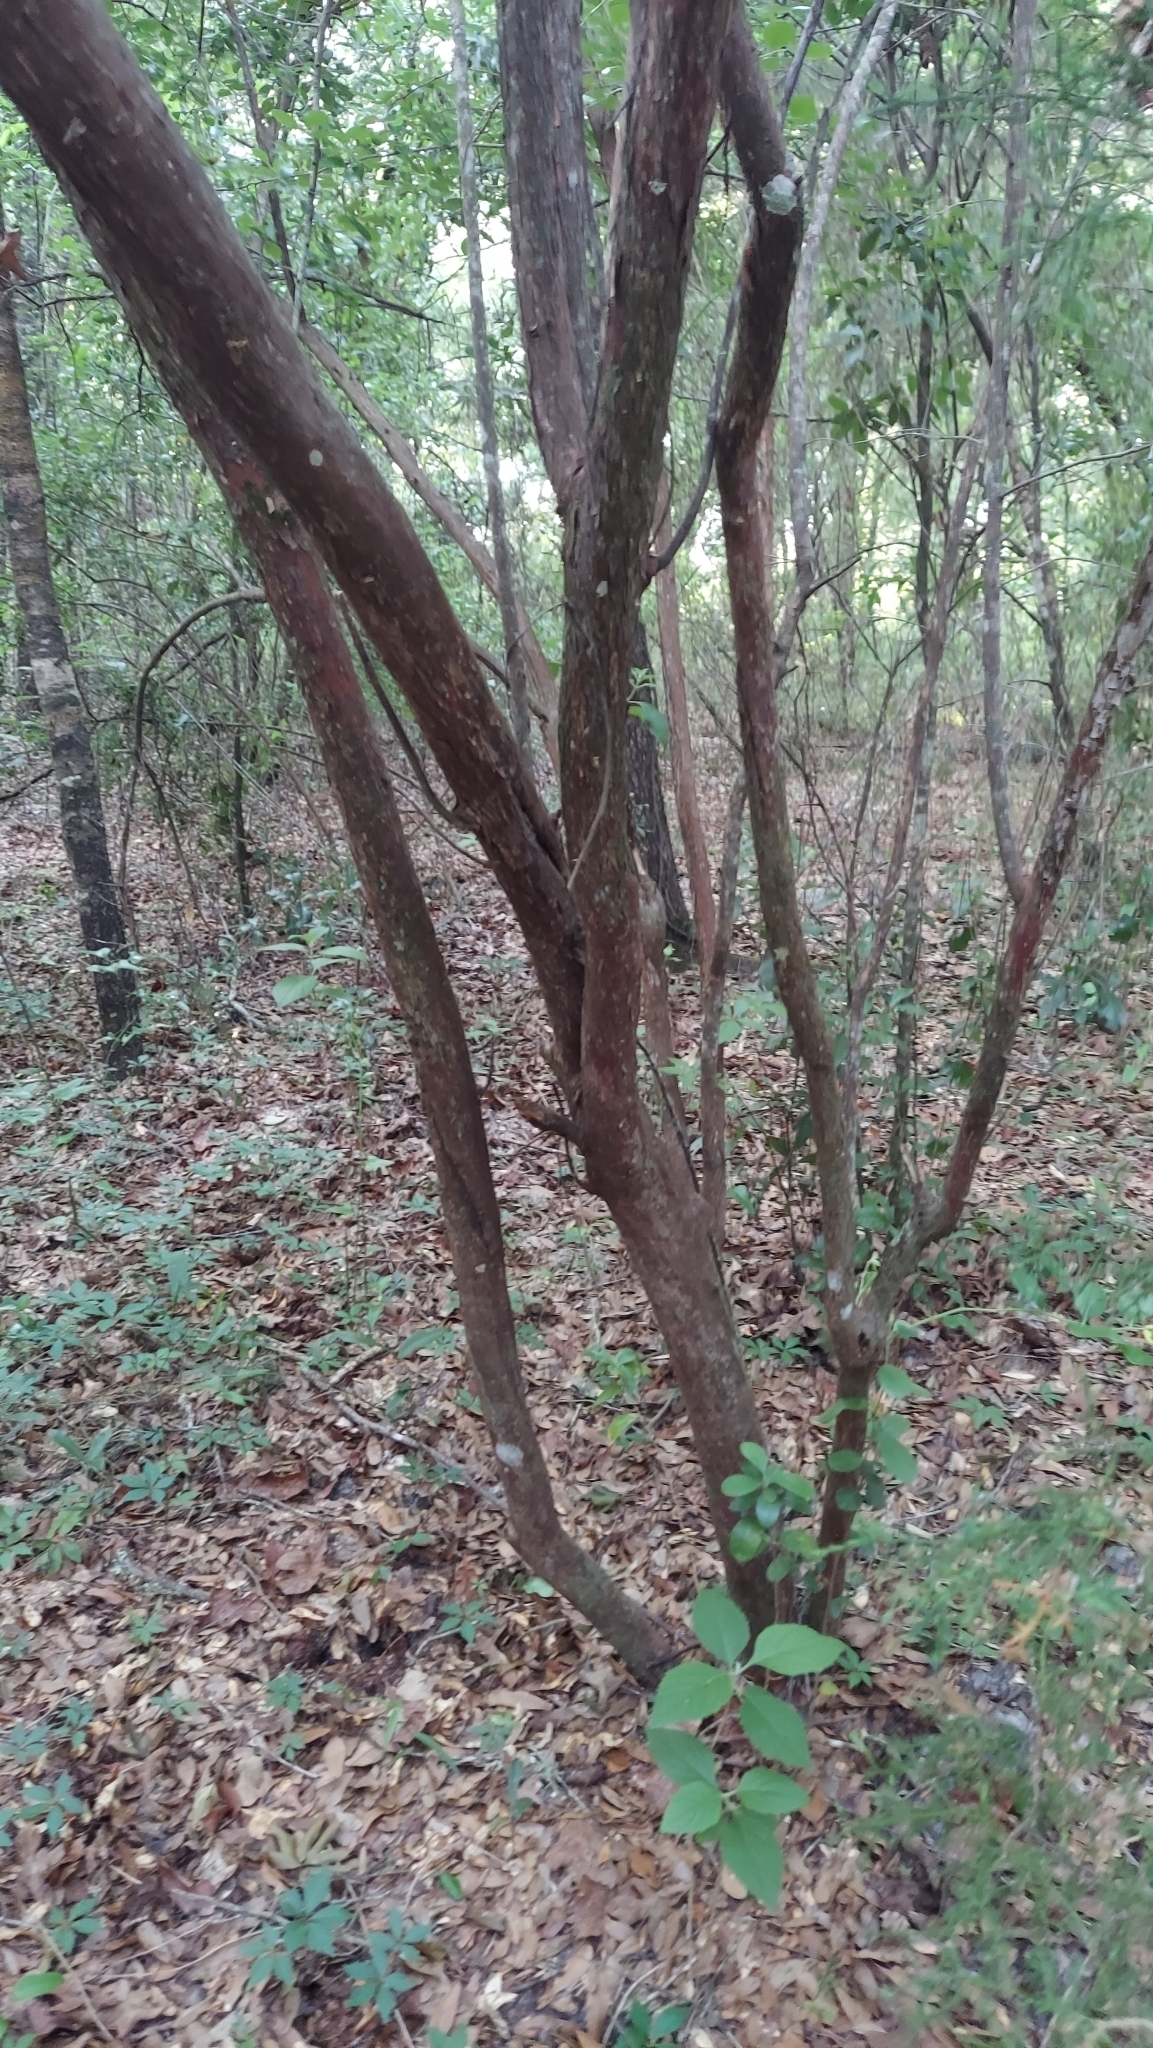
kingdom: Plantae
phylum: Tracheophyta
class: Magnoliopsida
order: Ericales
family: Ericaceae
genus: Vaccinium
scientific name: Vaccinium arboreum
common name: Farkleberry
